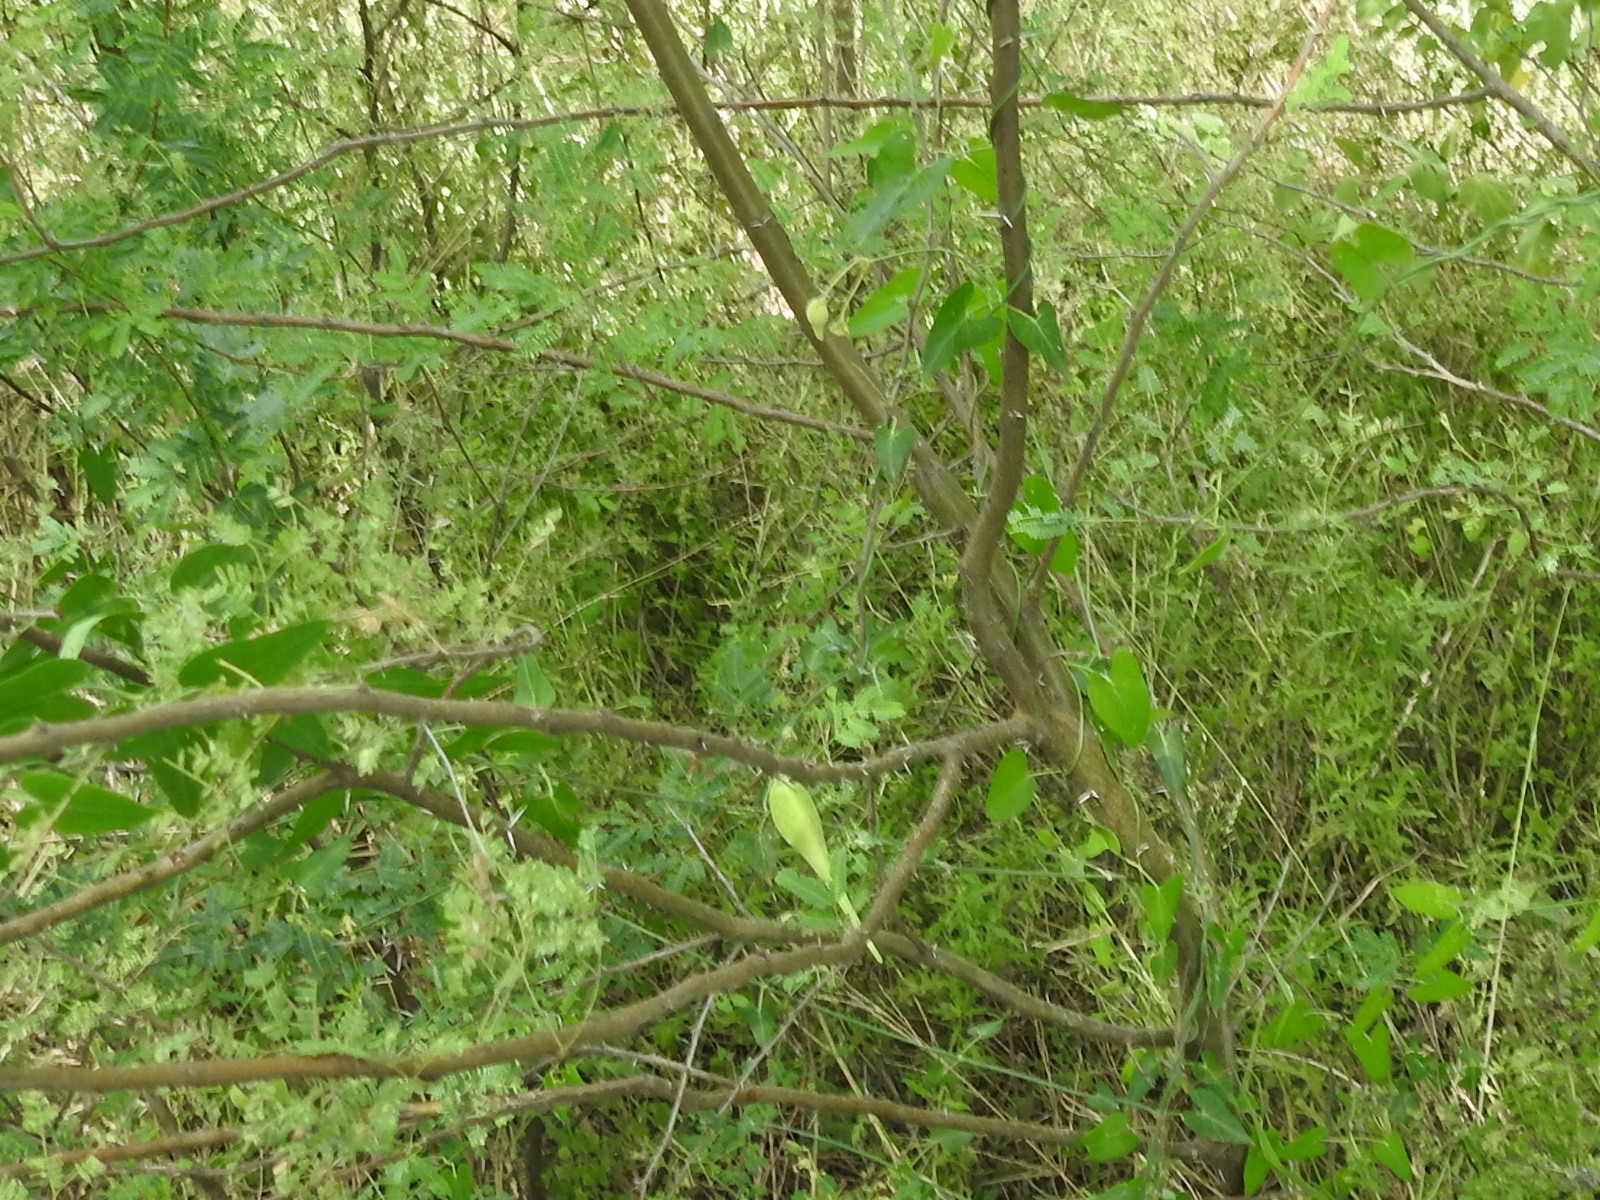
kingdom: Plantae
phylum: Tracheophyta
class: Magnoliopsida
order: Gentianales
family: Apocynaceae
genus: Funastrum
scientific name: Funastrum cynanchoides
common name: Climbing-milkweed
